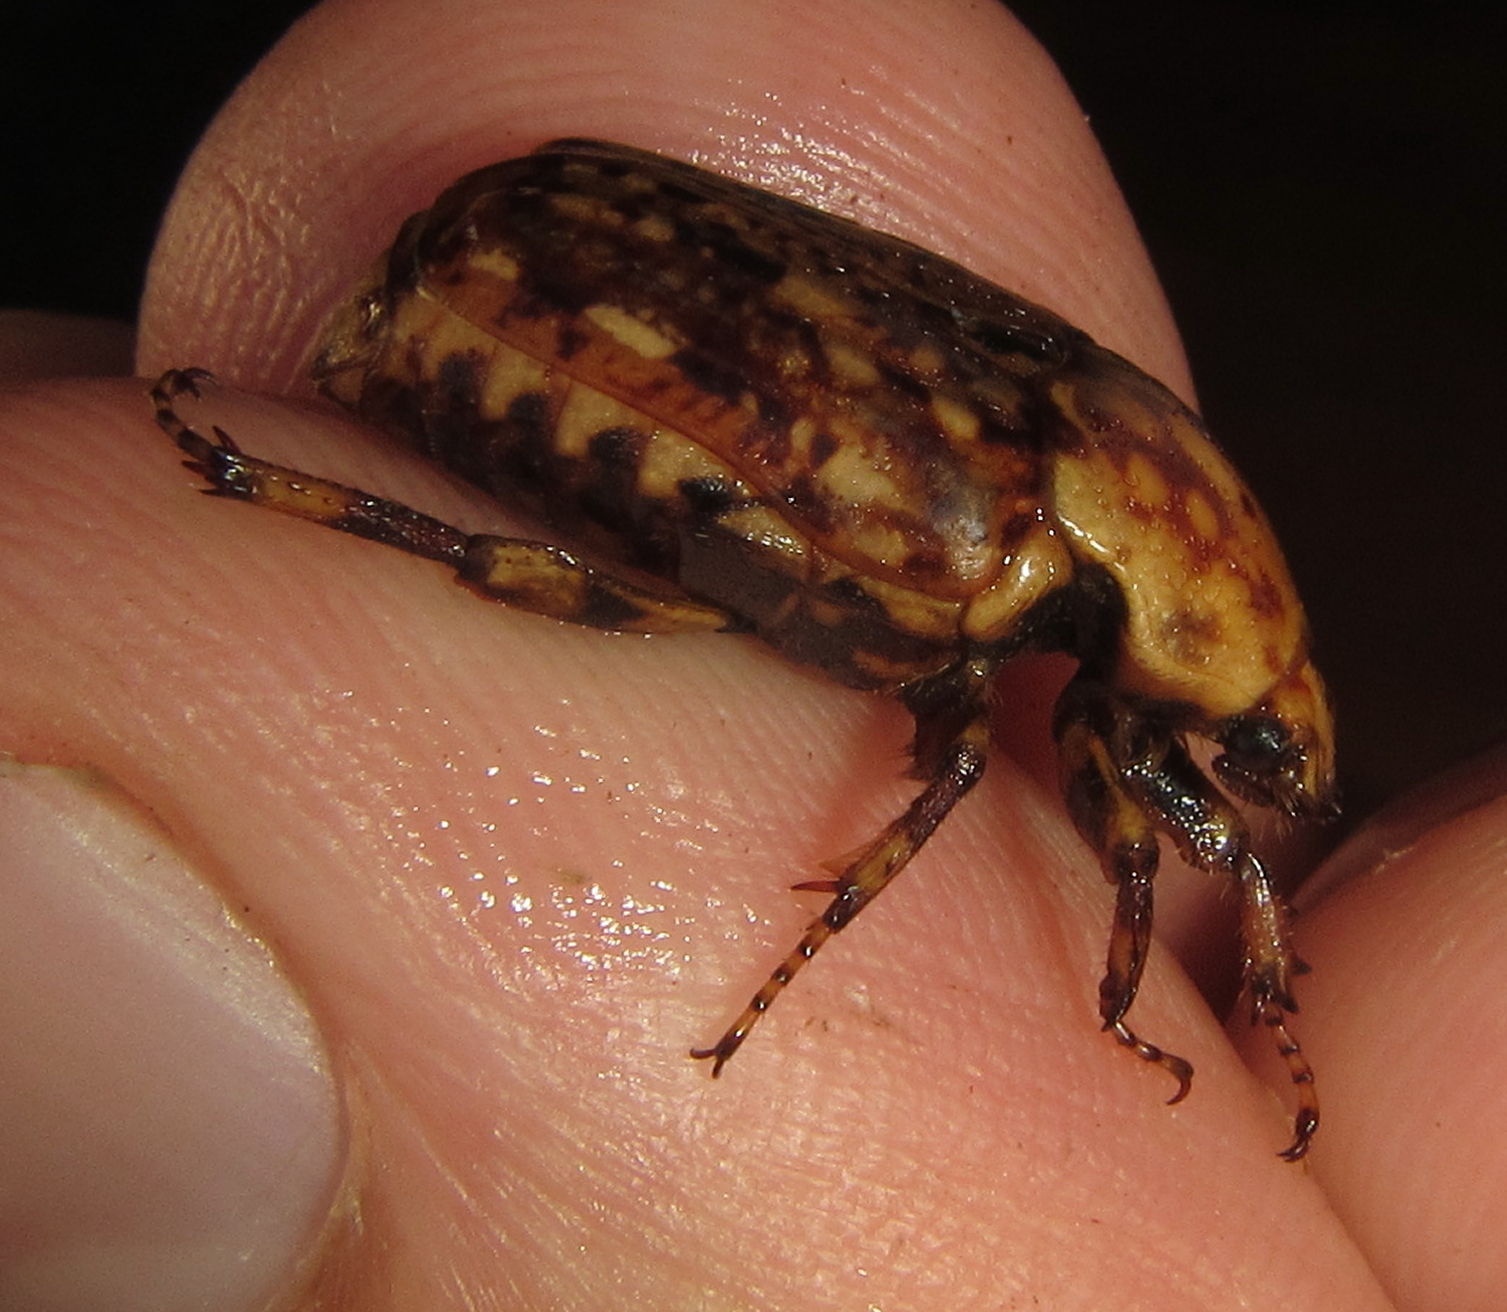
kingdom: Animalia
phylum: Arthropoda
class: Insecta
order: Coleoptera
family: Scarabaeidae
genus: Porphyronota
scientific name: Porphyronota hebraea
